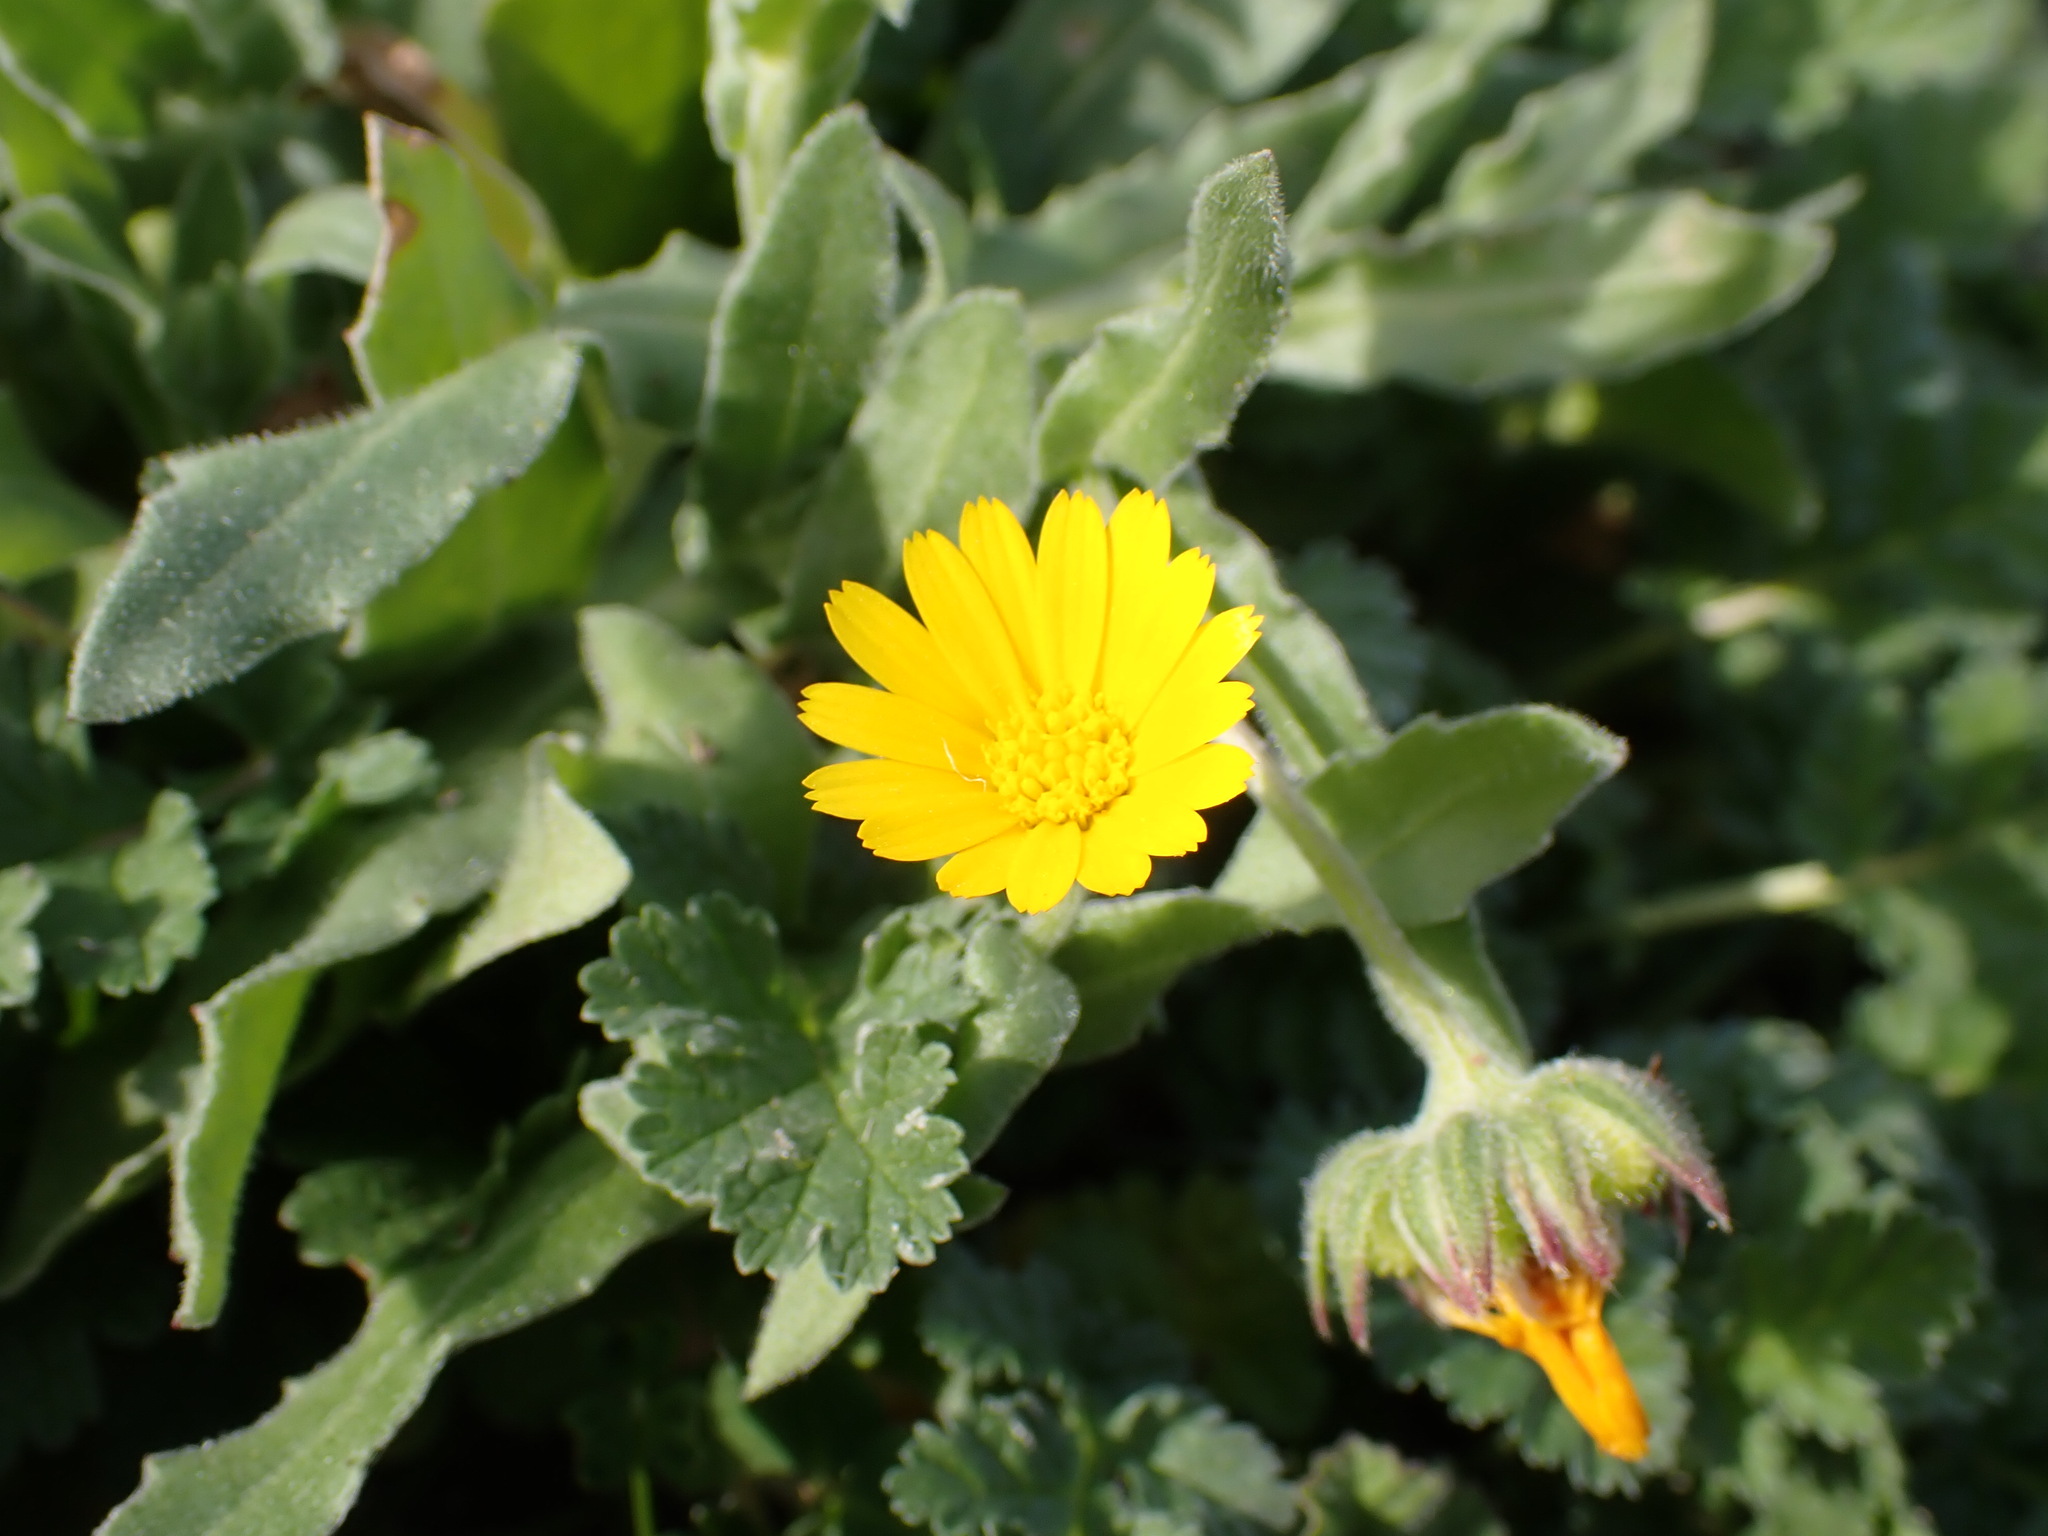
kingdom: Plantae
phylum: Tracheophyta
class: Magnoliopsida
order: Asterales
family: Asteraceae
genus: Calendula
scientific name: Calendula arvensis
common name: Field marigold
